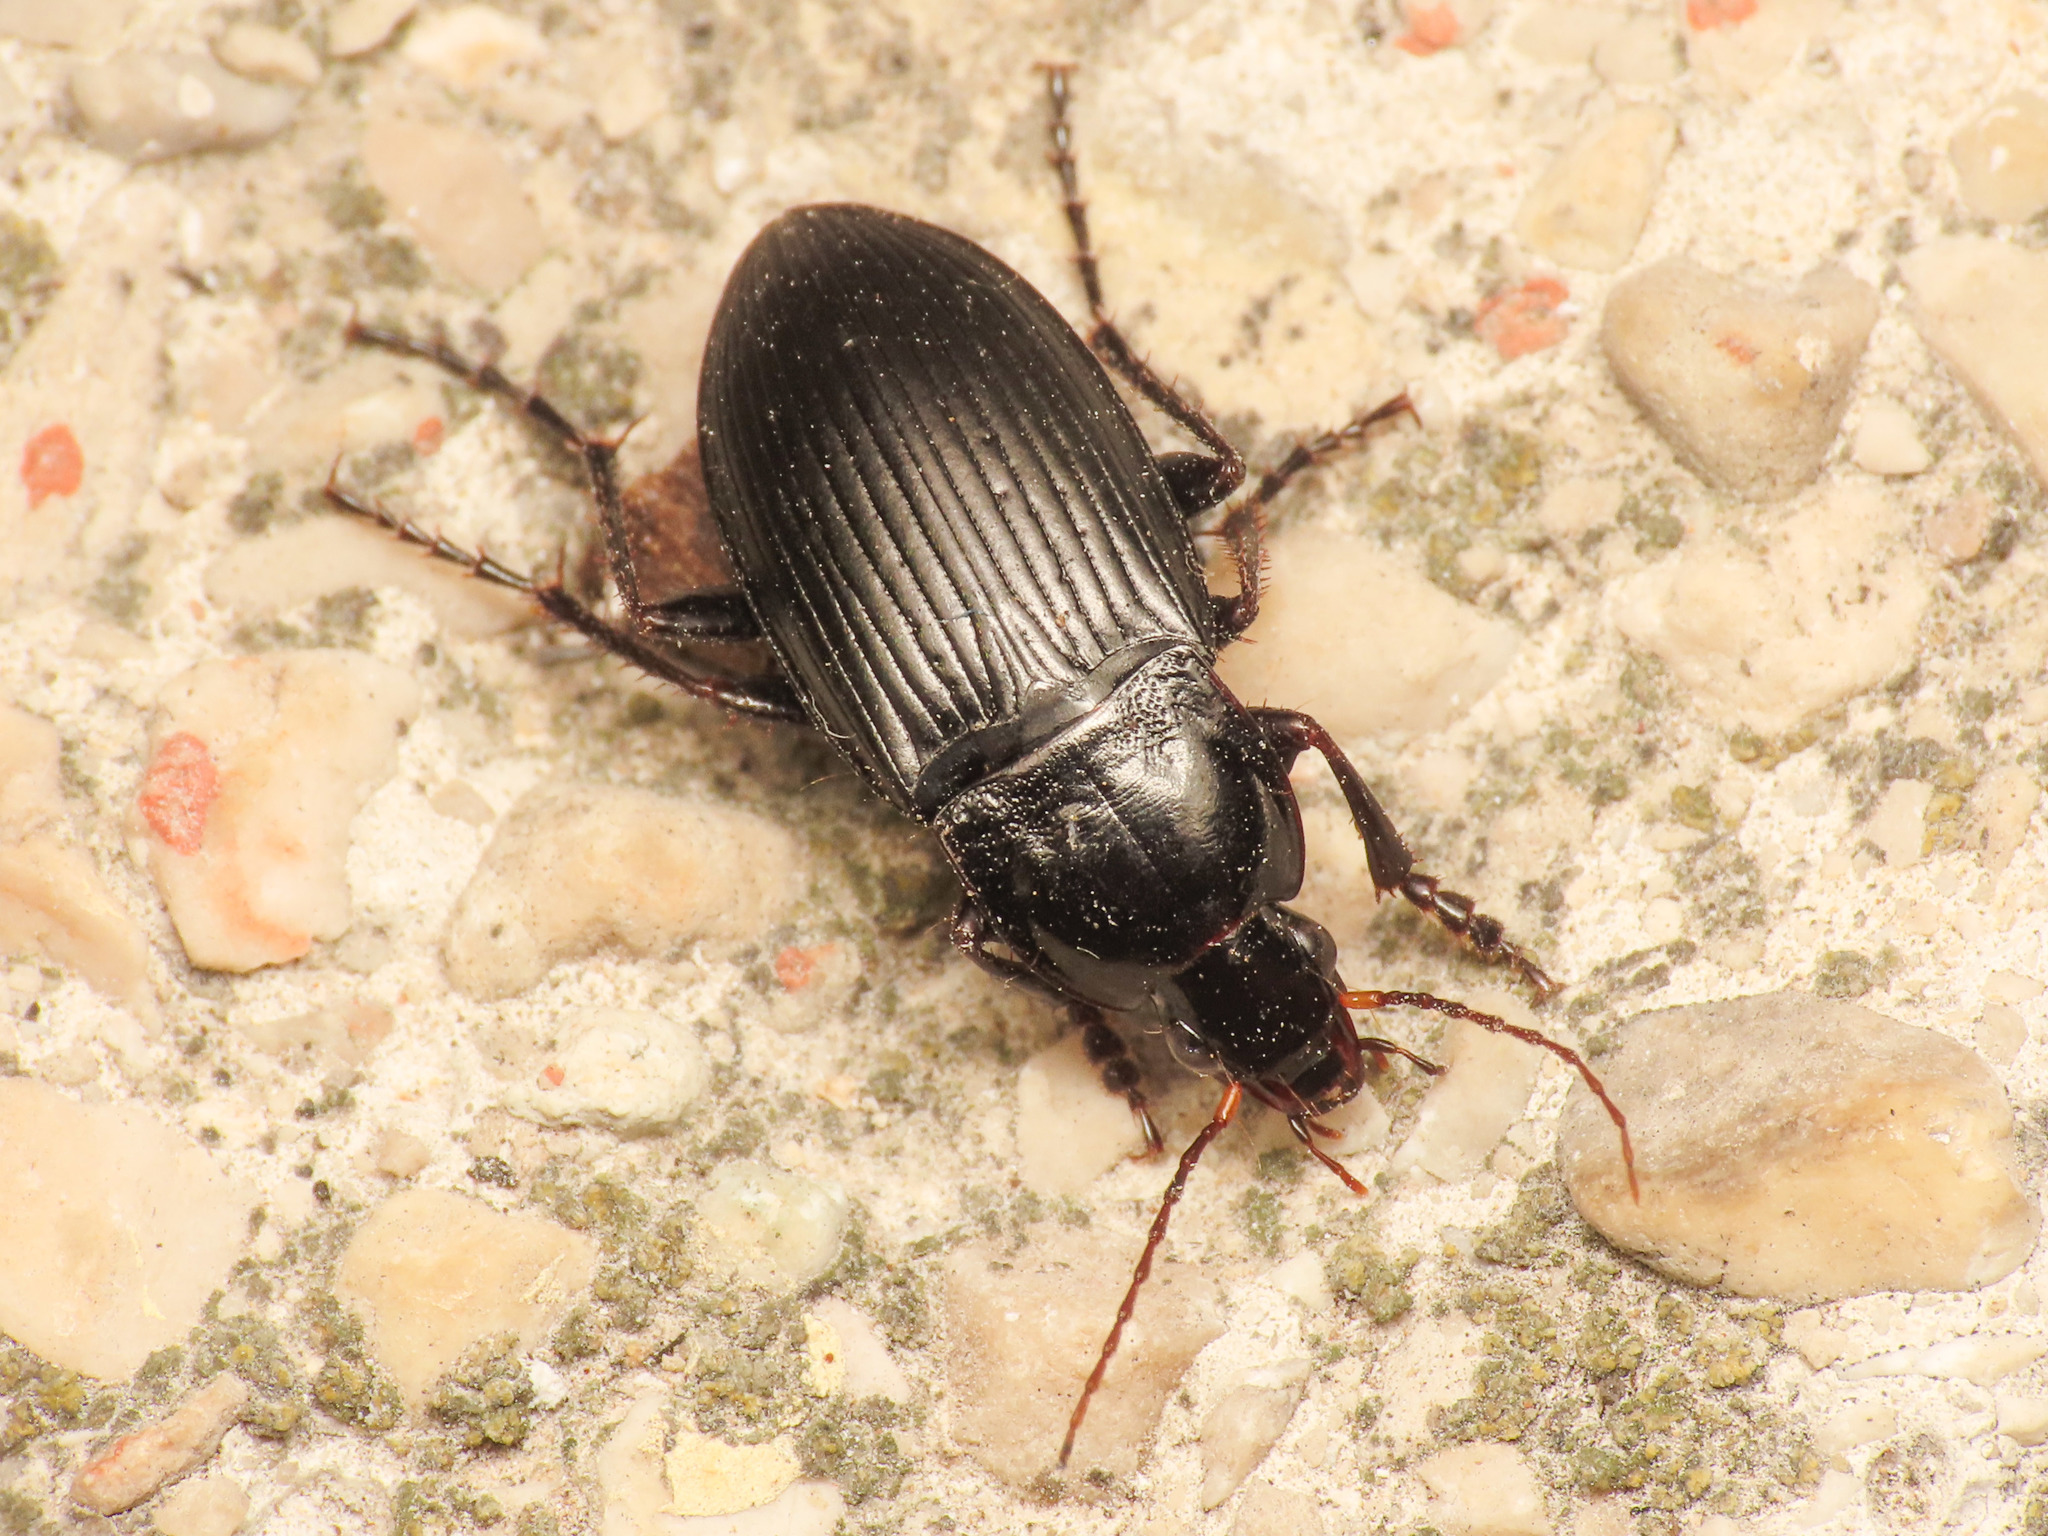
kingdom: Animalia
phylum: Arthropoda
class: Insecta
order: Coleoptera
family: Carabidae
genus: Calathus
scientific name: Calathus fuscipes
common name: Dark-footed harp ground beetle
